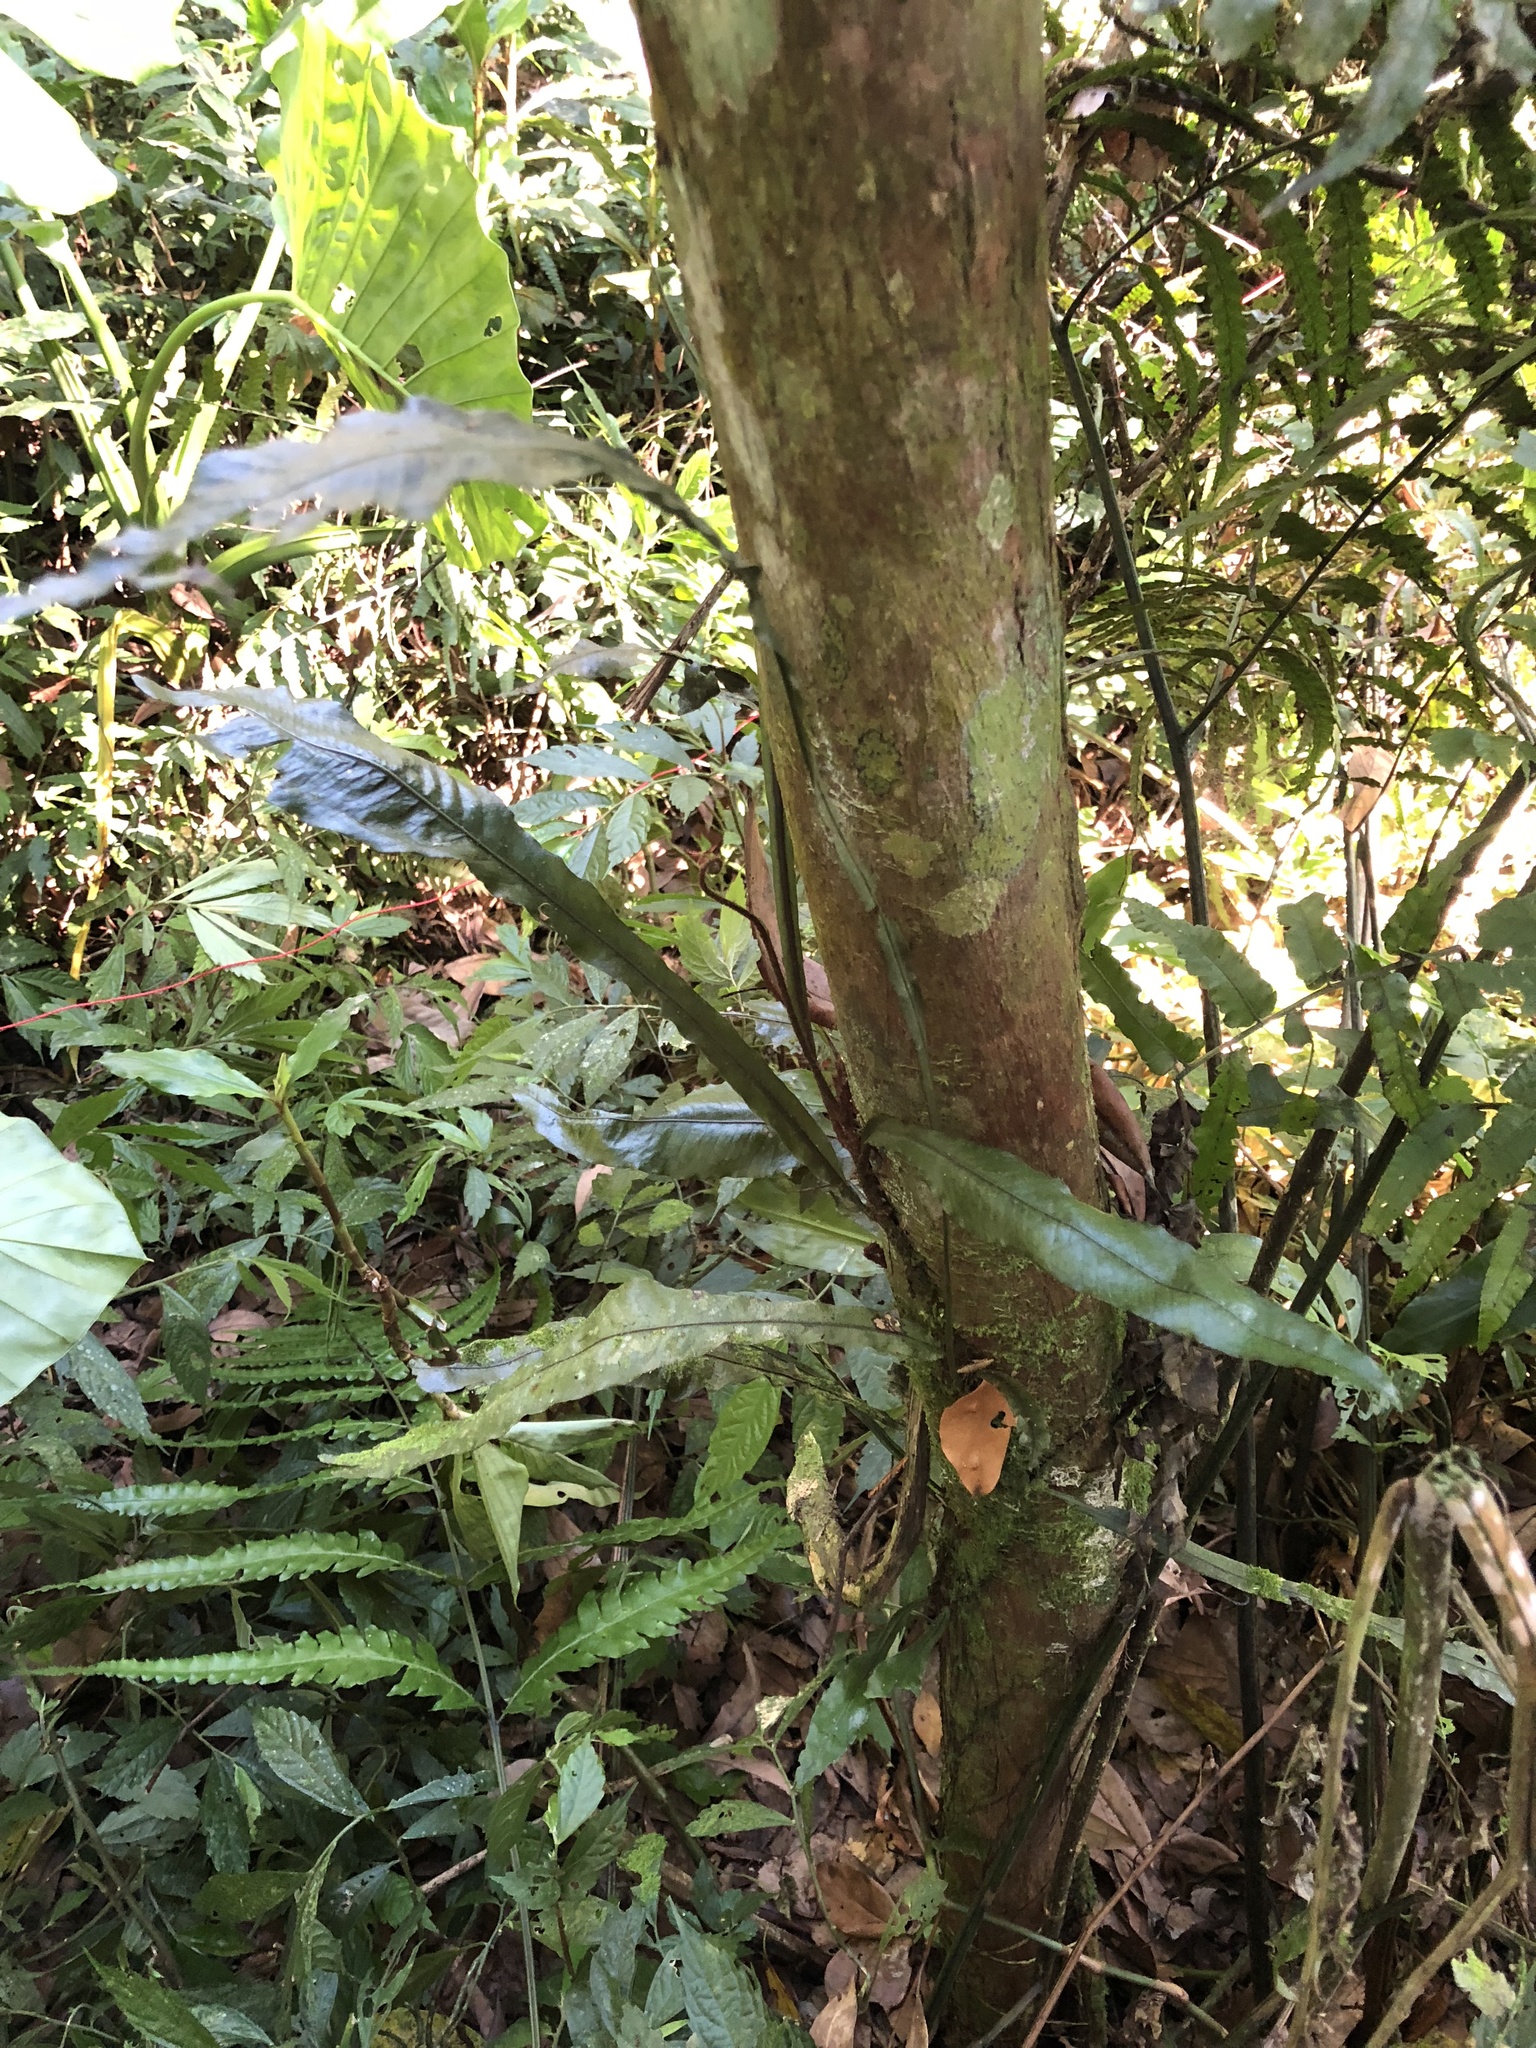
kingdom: Plantae
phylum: Tracheophyta
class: Polypodiopsida
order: Polypodiales
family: Polypodiaceae
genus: Leptochilus
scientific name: Leptochilus wrightii
